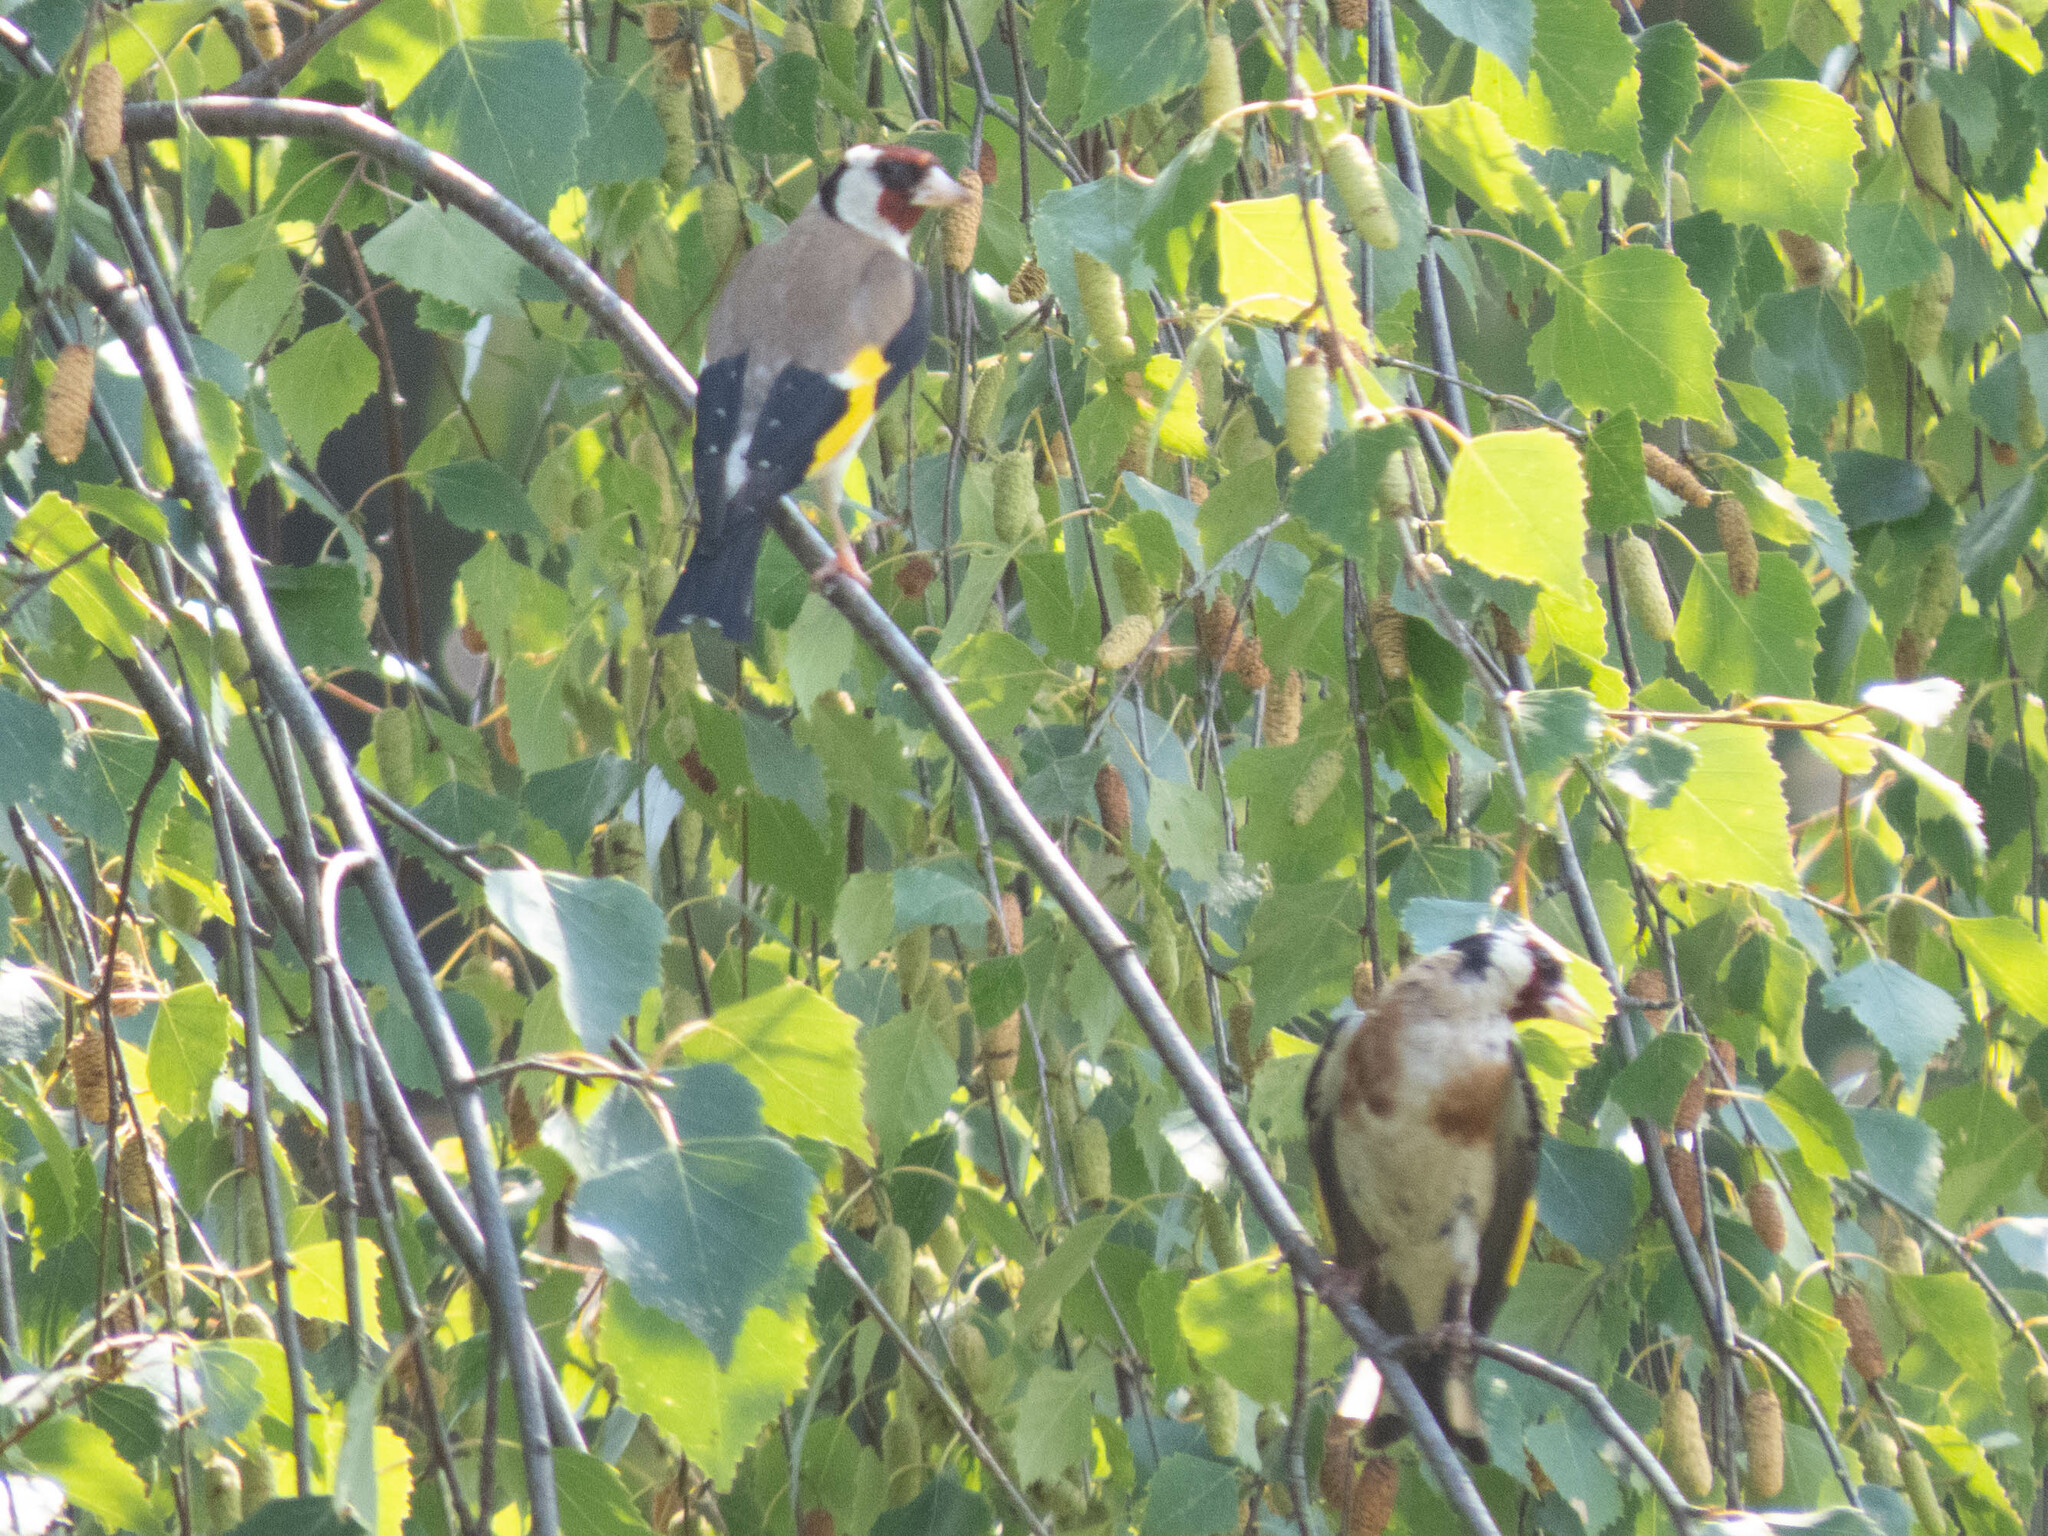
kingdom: Animalia
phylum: Chordata
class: Aves
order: Passeriformes
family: Fringillidae
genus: Carduelis
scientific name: Carduelis carduelis
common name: European goldfinch
